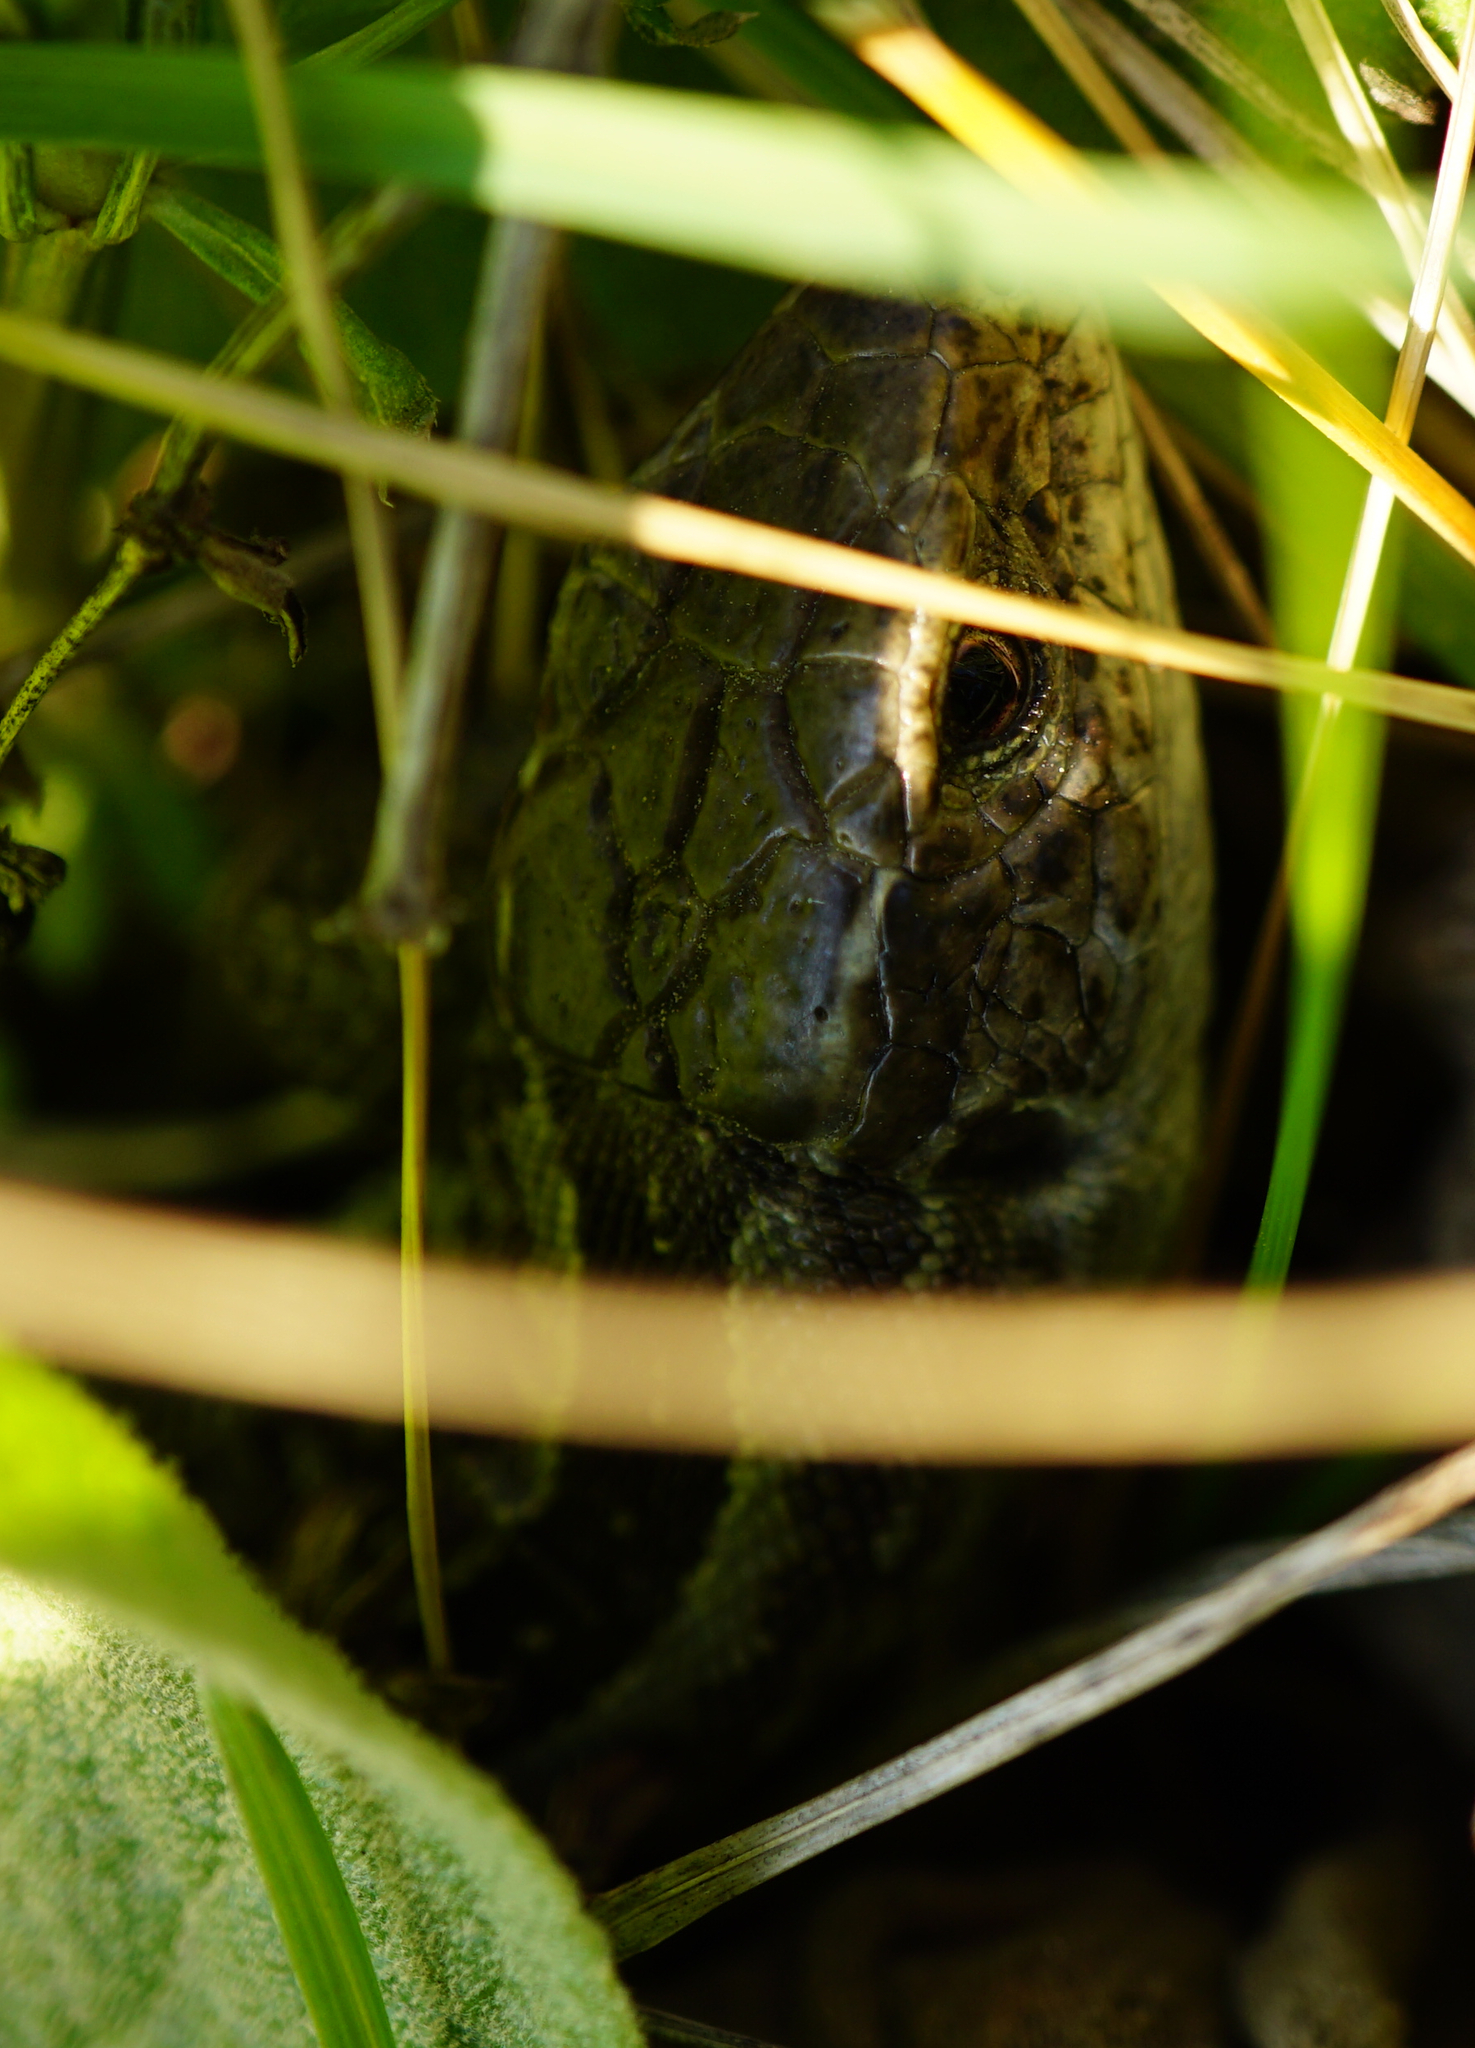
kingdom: Animalia
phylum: Chordata
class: Squamata
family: Lacertidae
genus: Lacerta
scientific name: Lacerta agilis
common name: Sand lizard
